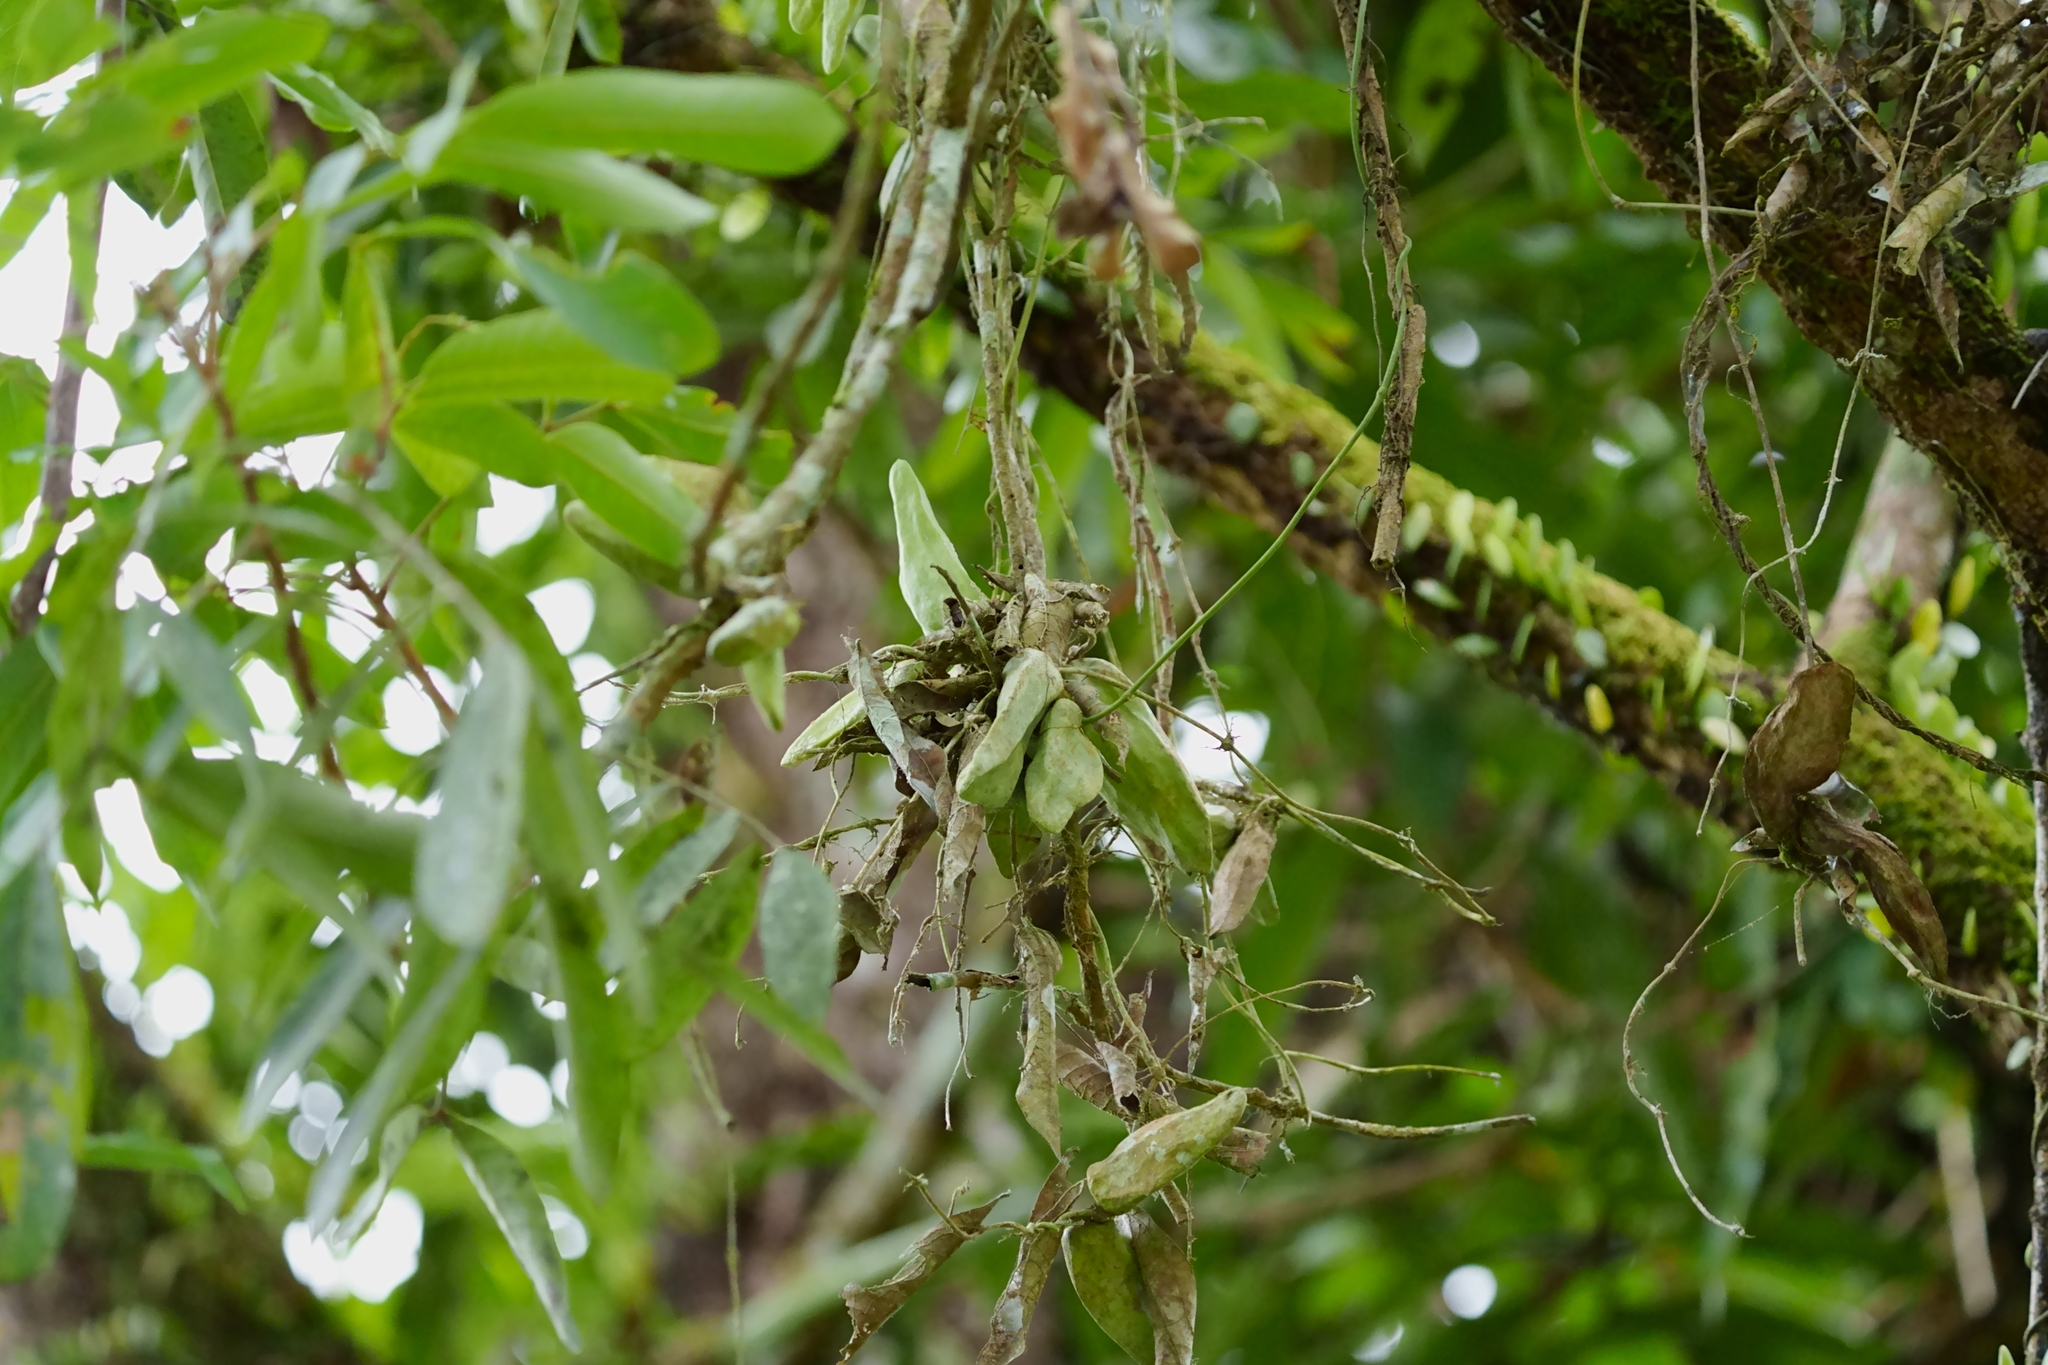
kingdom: Plantae
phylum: Tracheophyta
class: Magnoliopsida
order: Gentianales
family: Apocynaceae
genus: Dischidia
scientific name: Dischidia major
